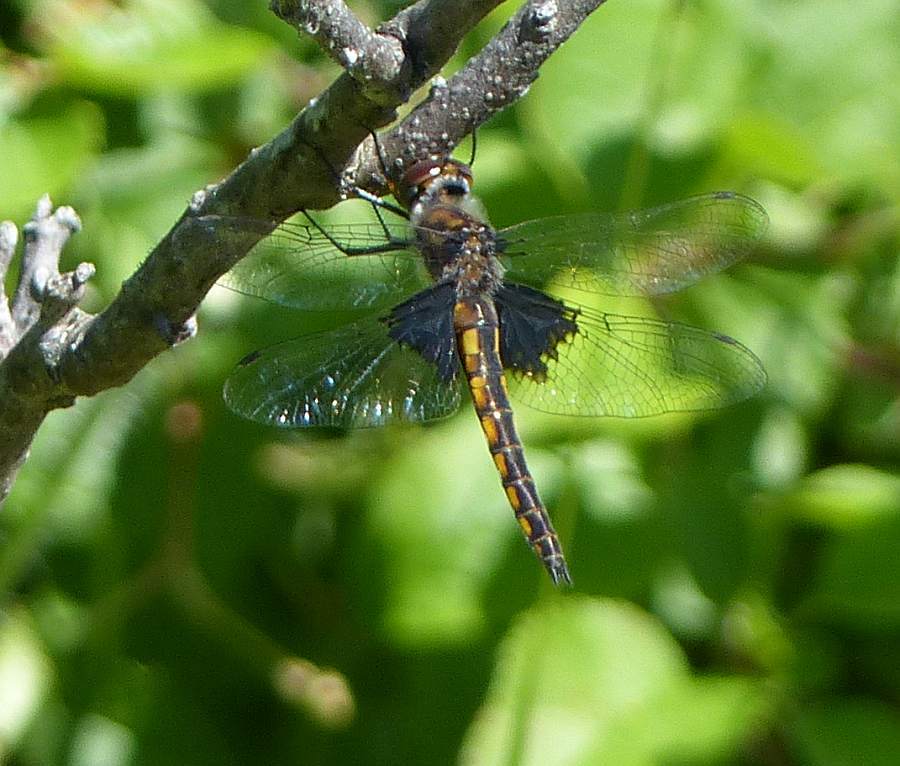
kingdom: Animalia
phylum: Arthropoda
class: Insecta
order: Odonata
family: Corduliidae
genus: Epitheca
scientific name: Epitheca cynosura
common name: Common baskettail
